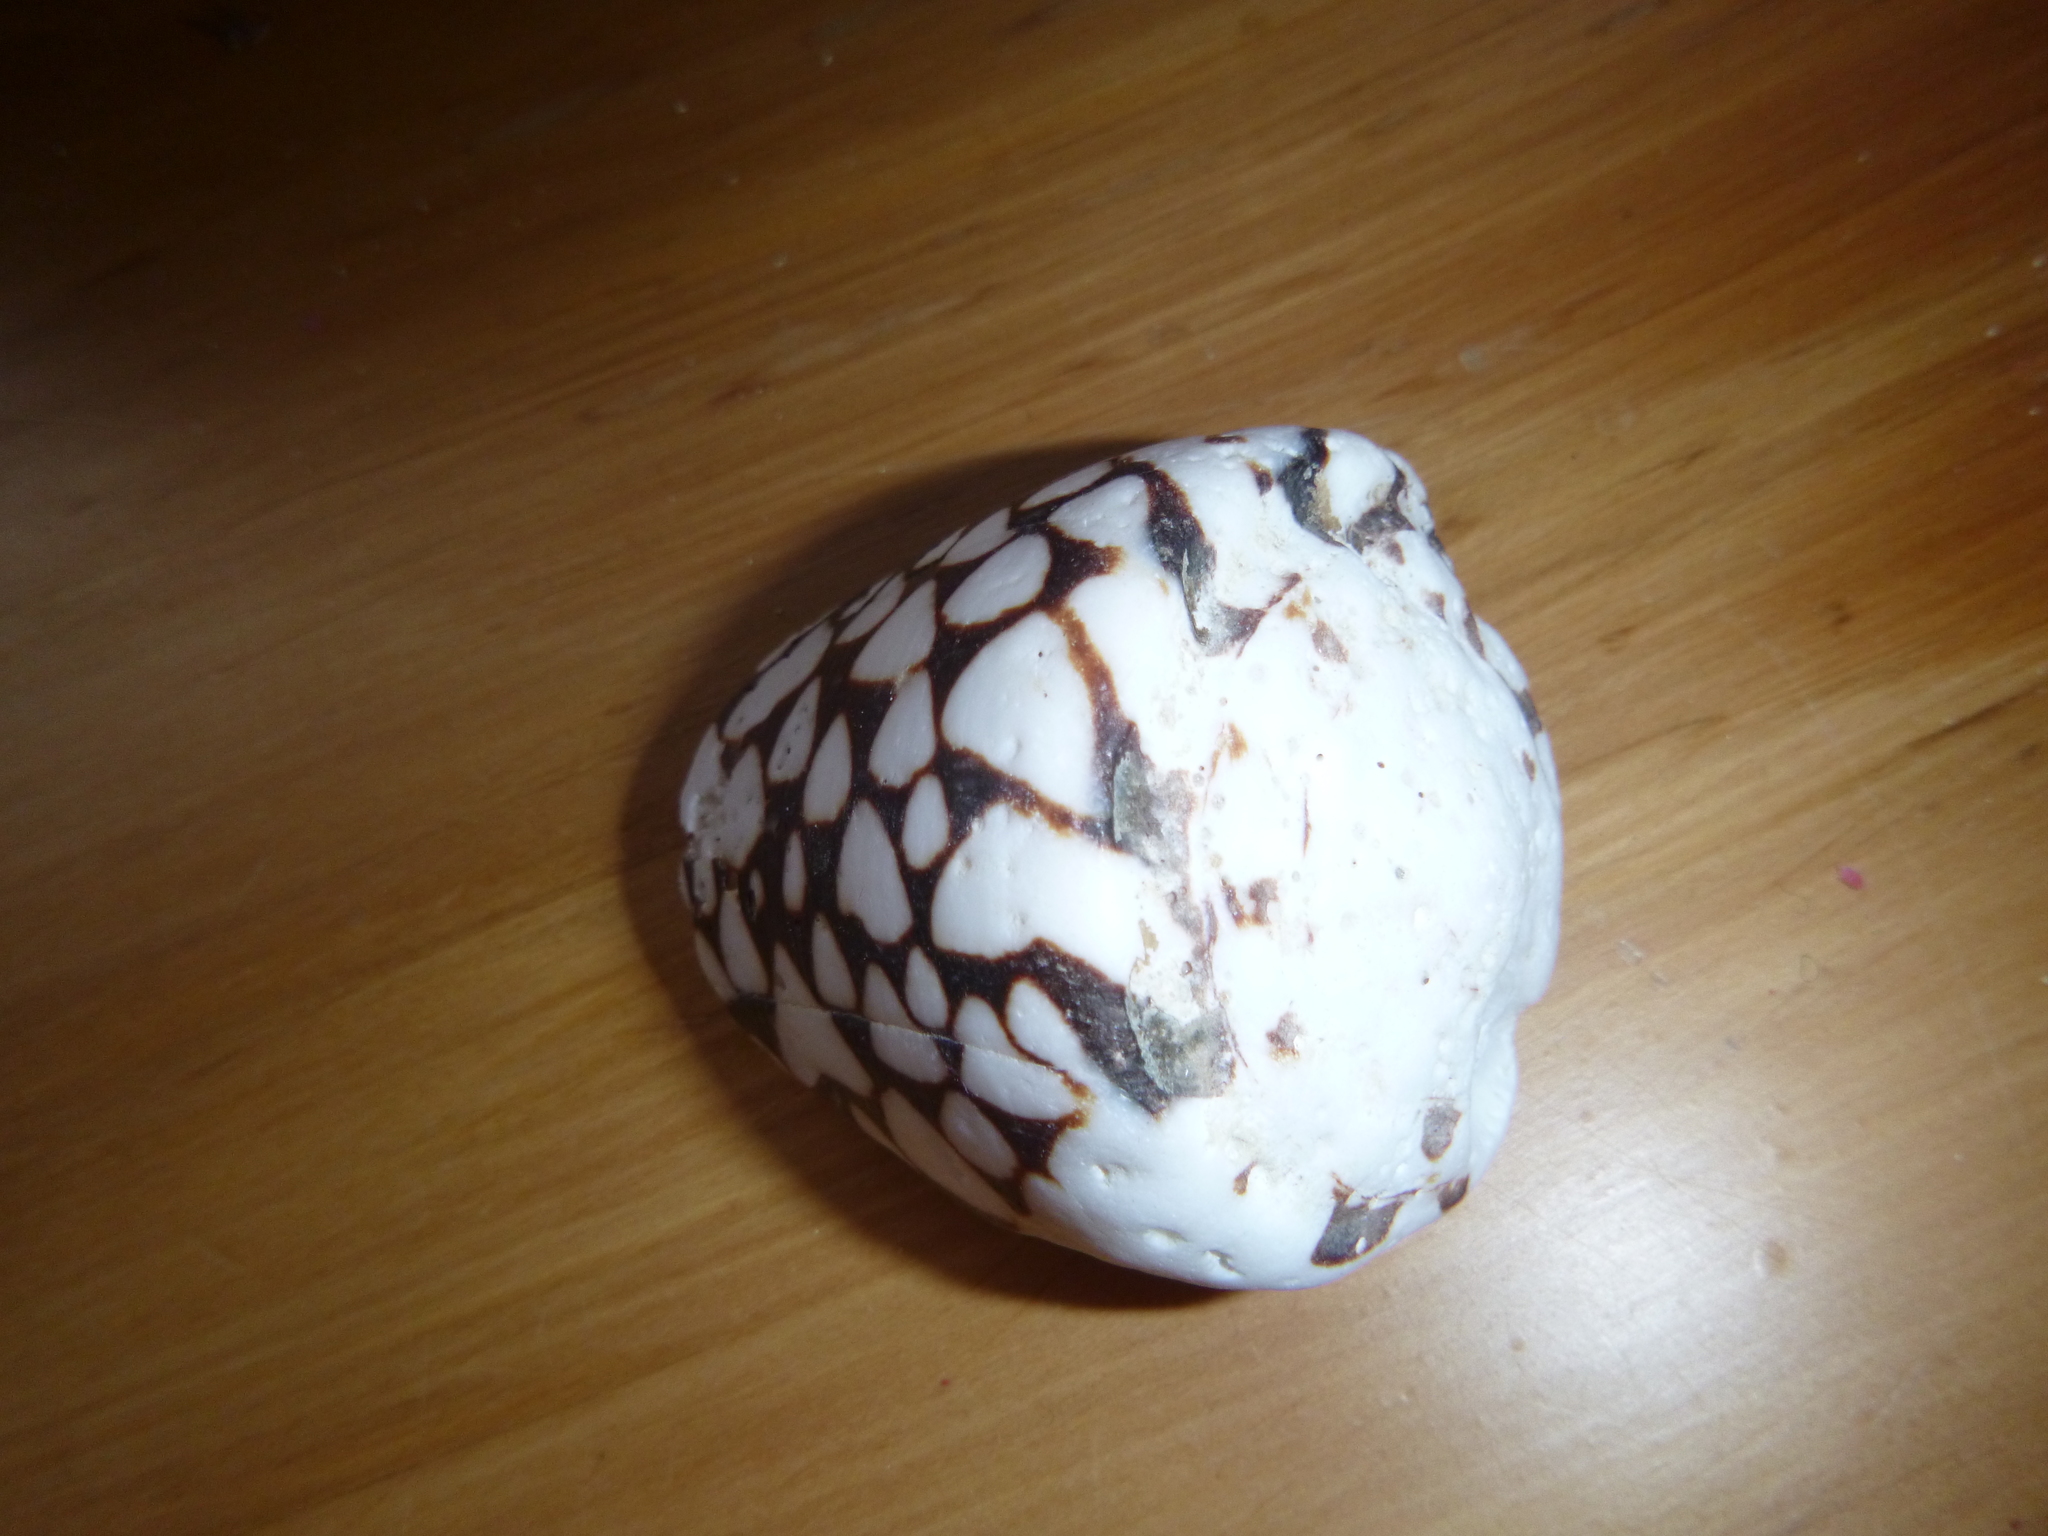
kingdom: Animalia
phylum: Mollusca
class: Gastropoda
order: Neogastropoda
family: Conidae
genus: Conus
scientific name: Conus marmoreus
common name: Marbled cone
